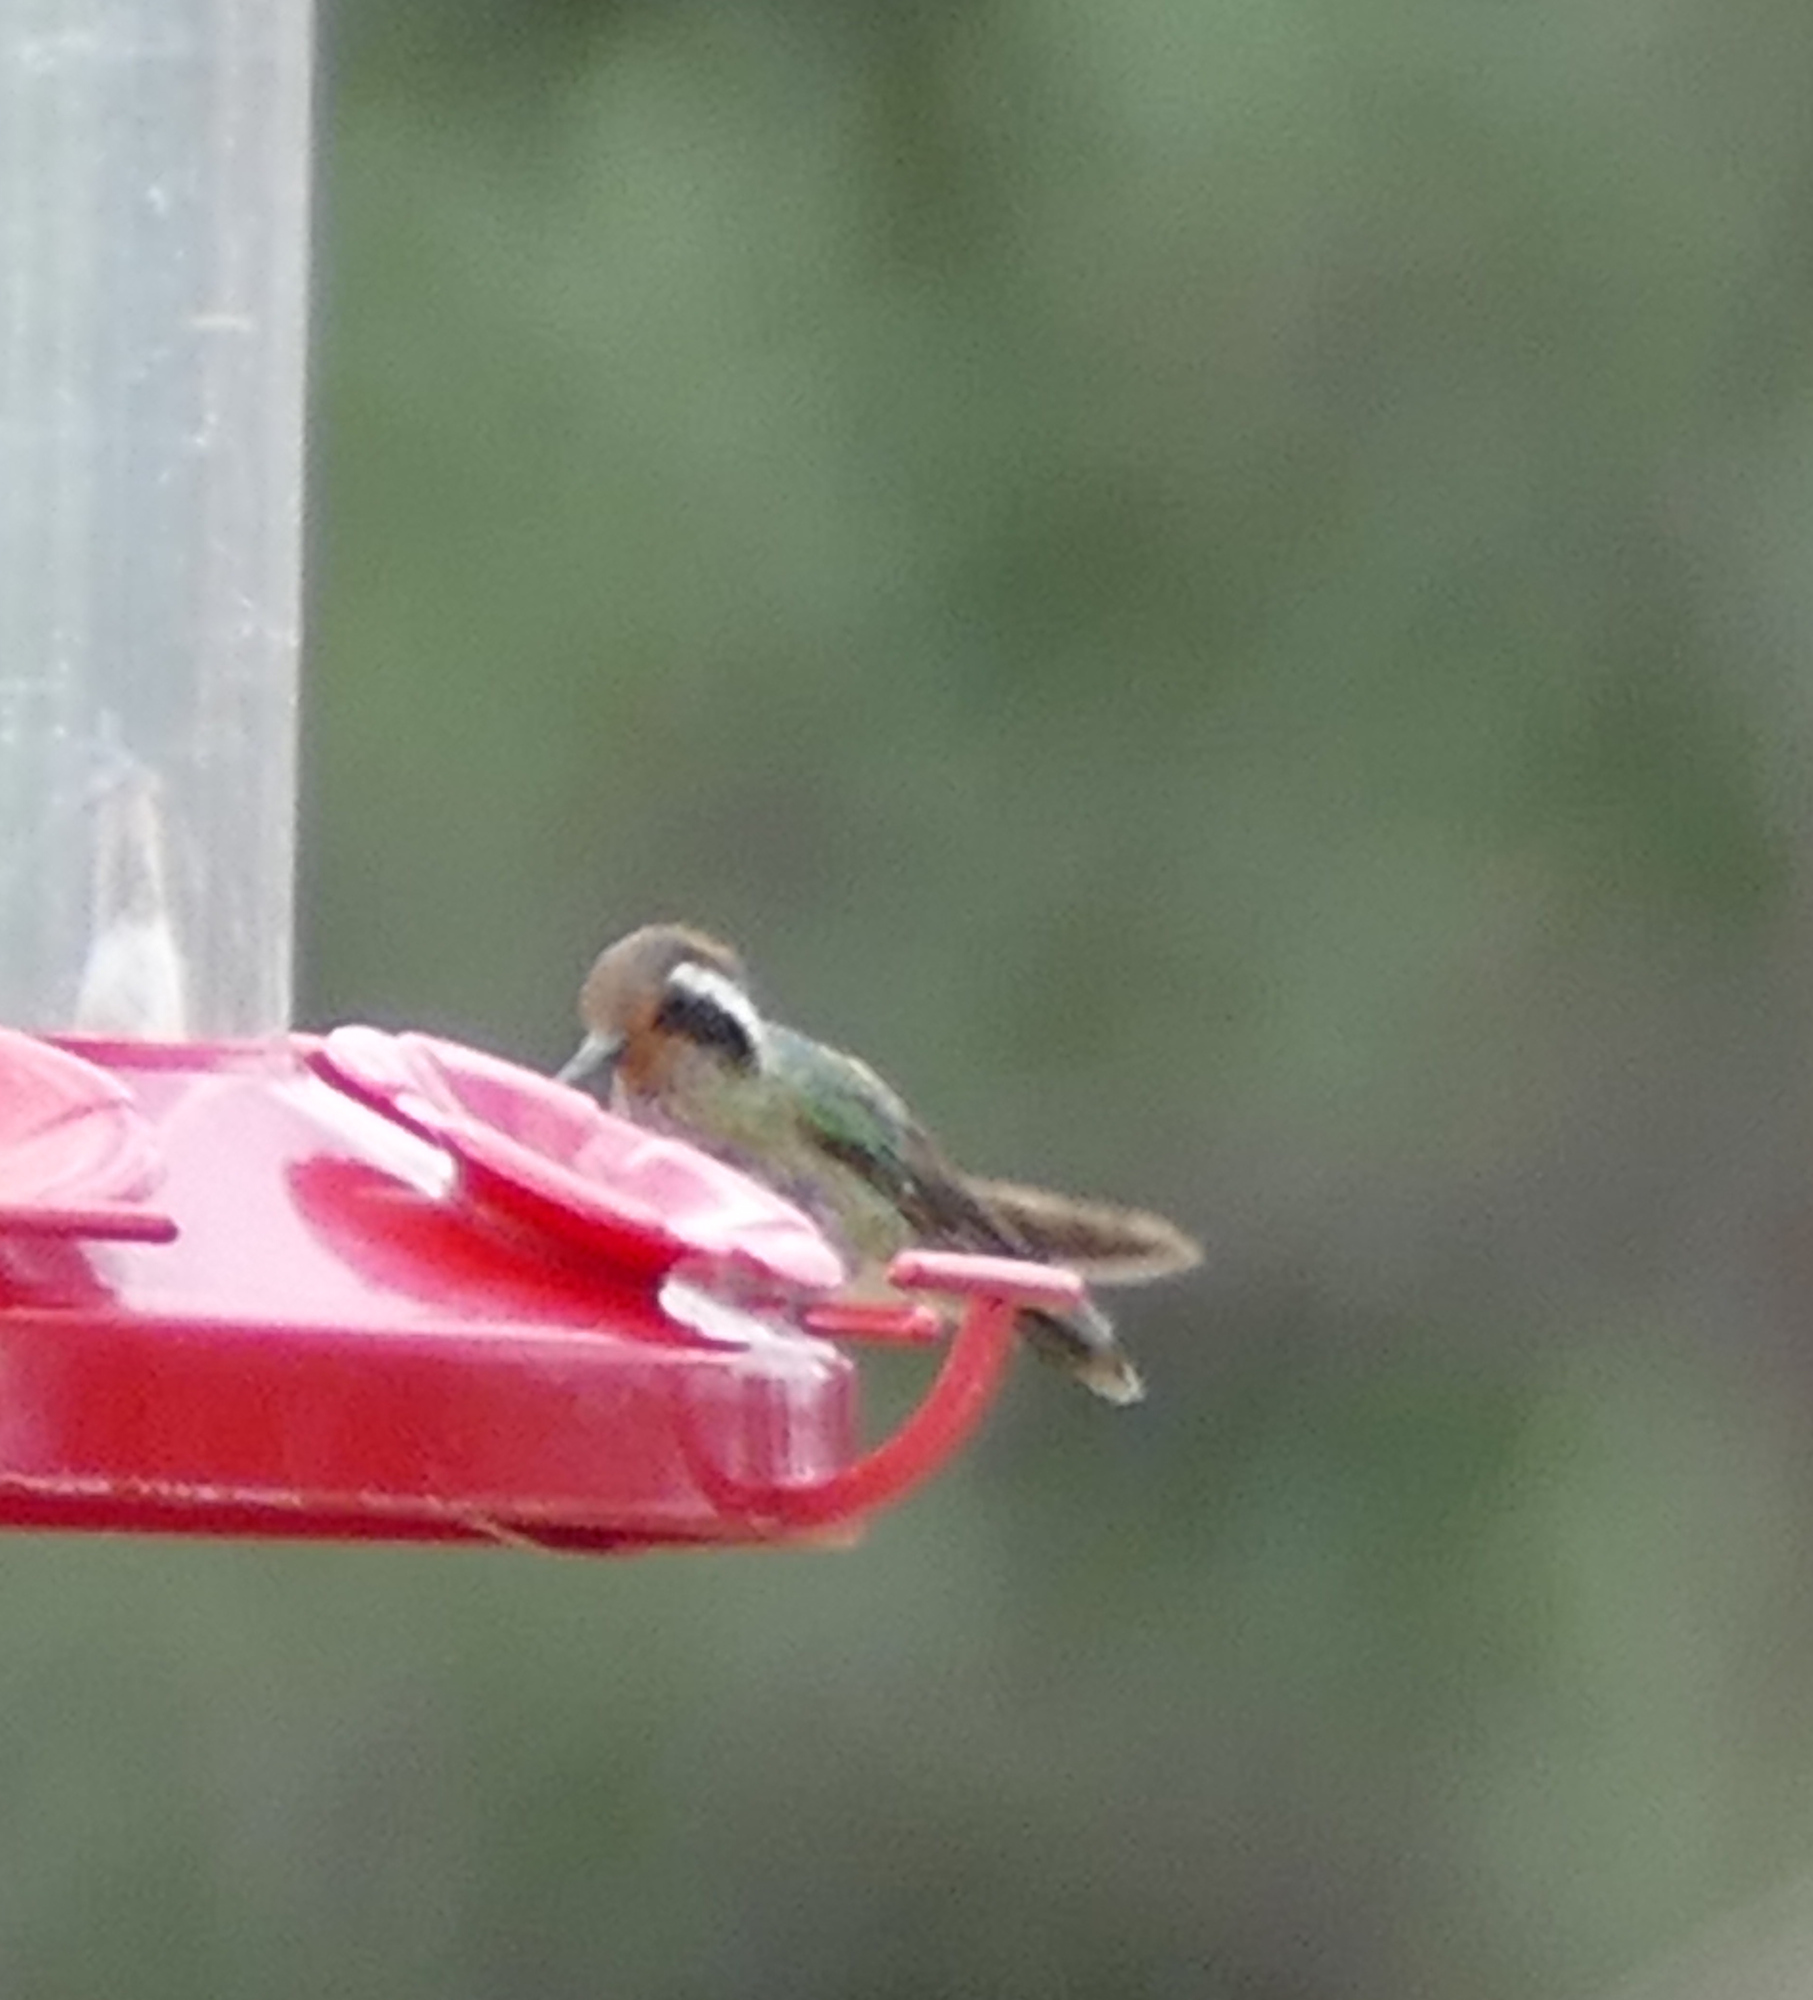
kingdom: Animalia
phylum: Chordata
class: Aves
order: Apodiformes
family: Trochilidae
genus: Basilinna
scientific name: Basilinna leucotis
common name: White-eared hummingbird
